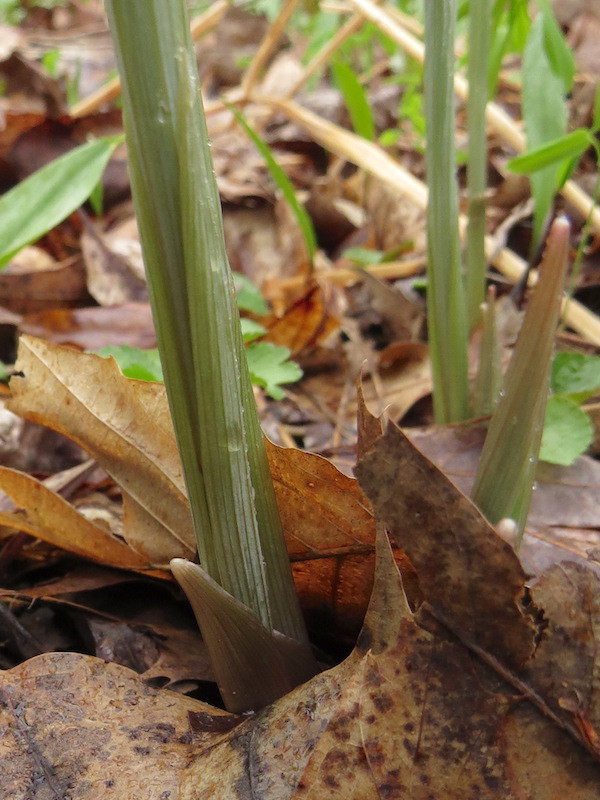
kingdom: Plantae
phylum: Tracheophyta
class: Liliopsida
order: Liliales
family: Colchicaceae
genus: Uvularia
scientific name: Uvularia grandiflora
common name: Bellwort
